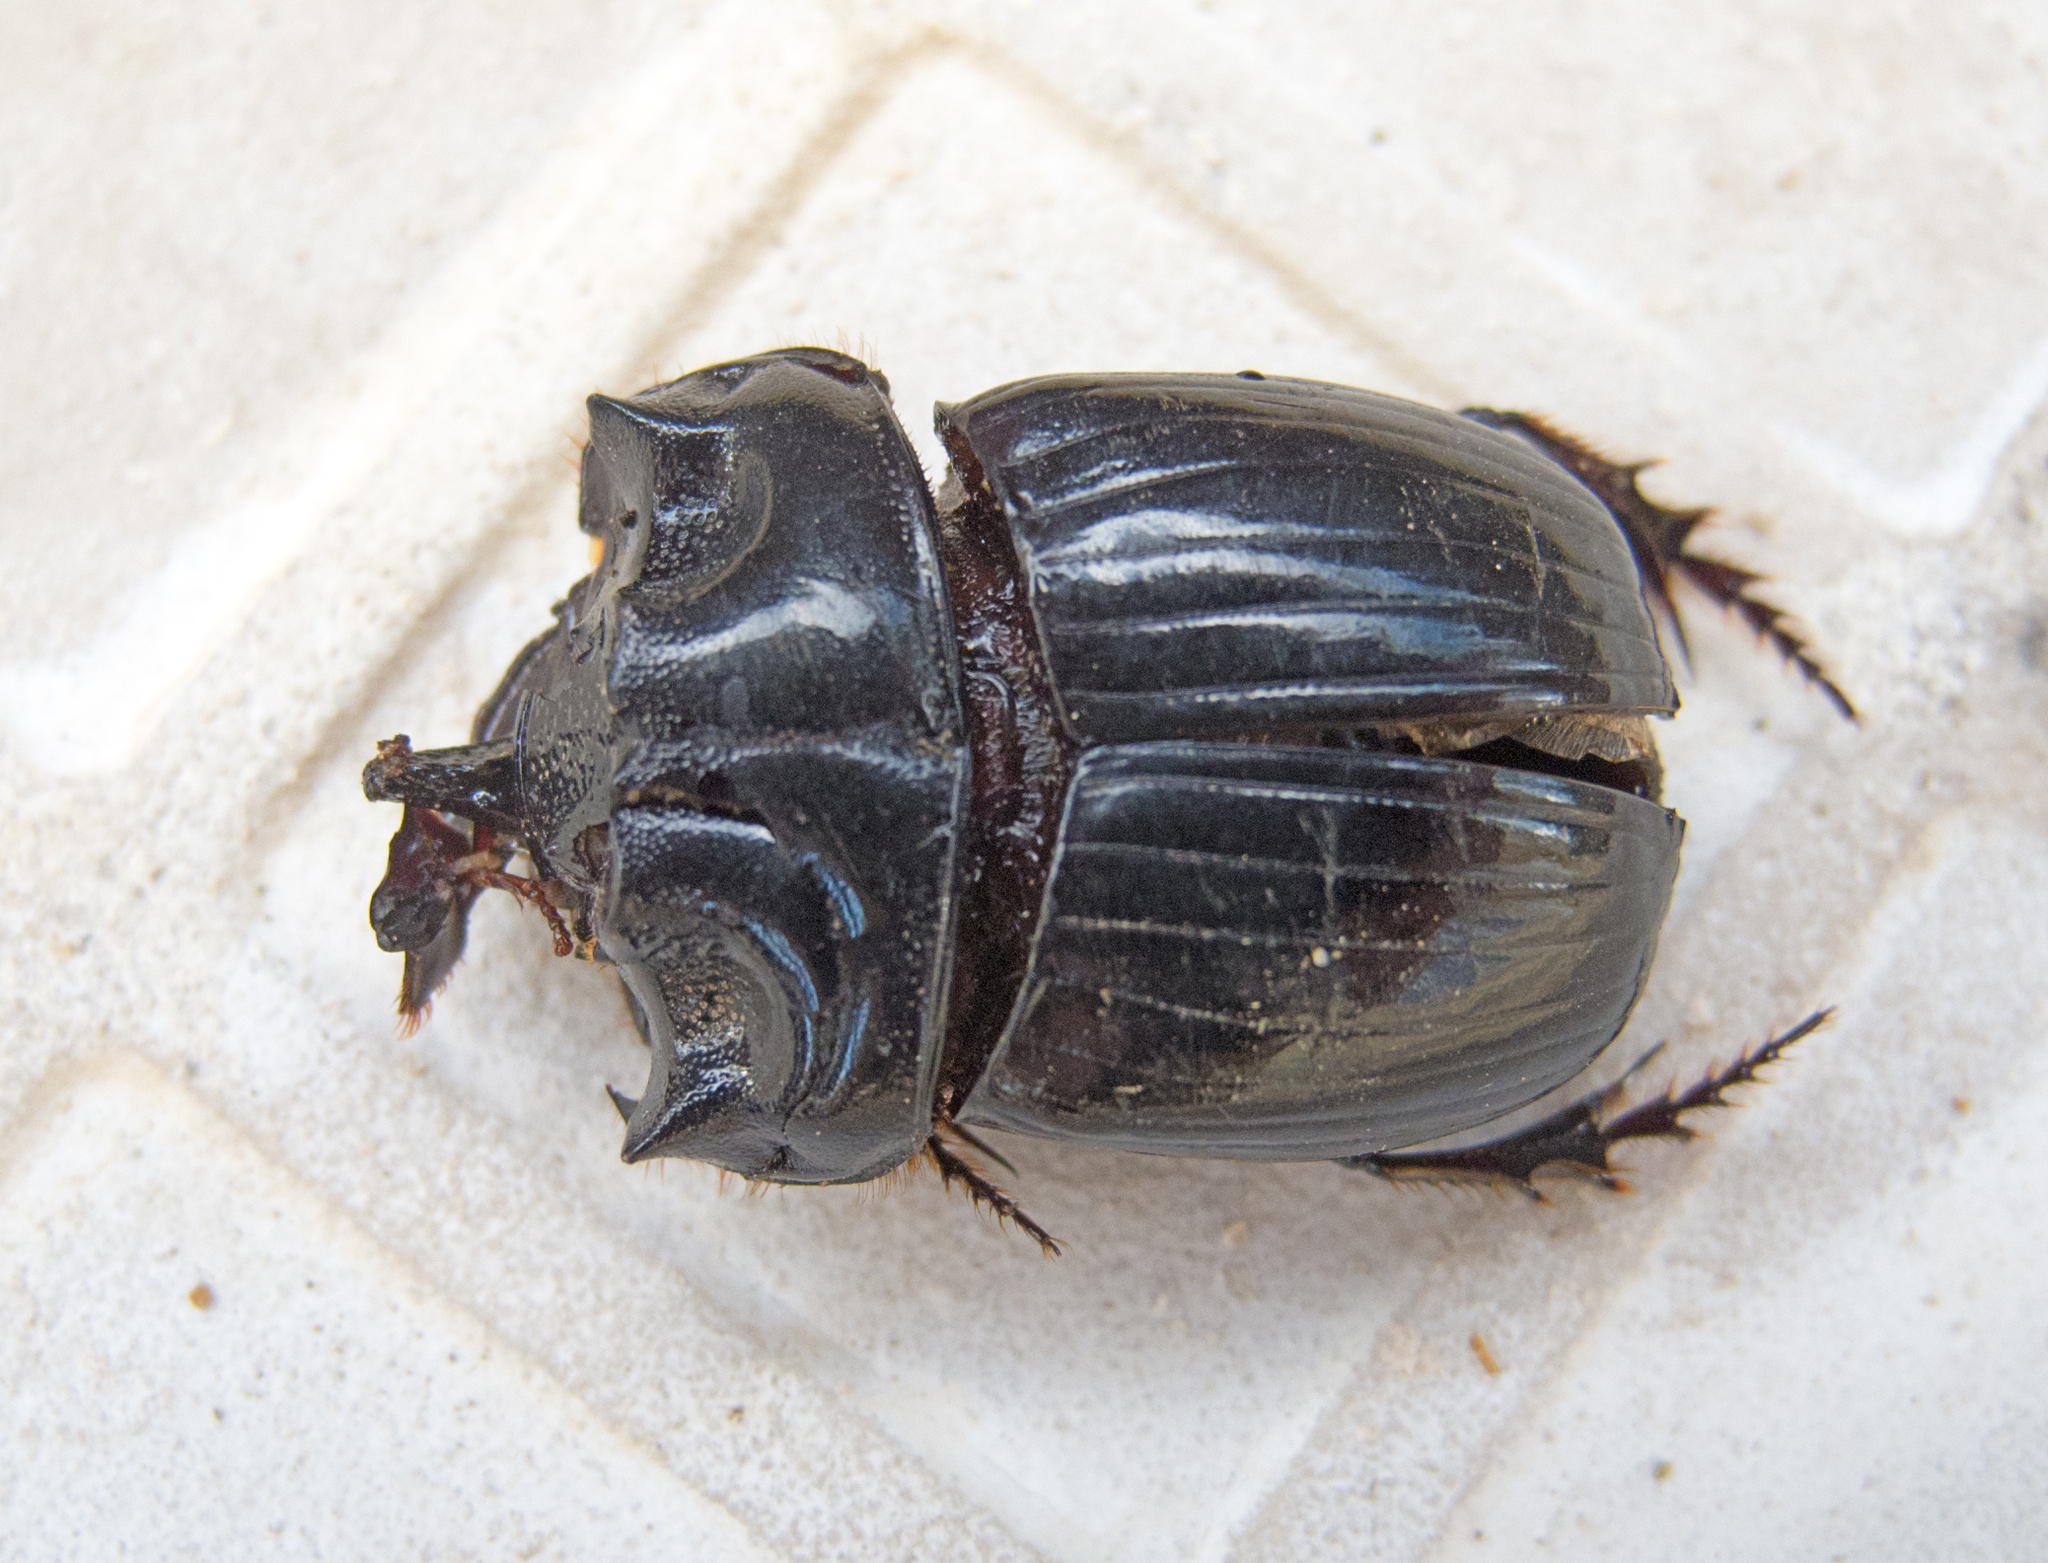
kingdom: Animalia
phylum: Arthropoda
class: Insecta
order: Coleoptera
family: Scarabaeidae
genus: Copris
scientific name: Copris lunaris
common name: Horned dung beetle
